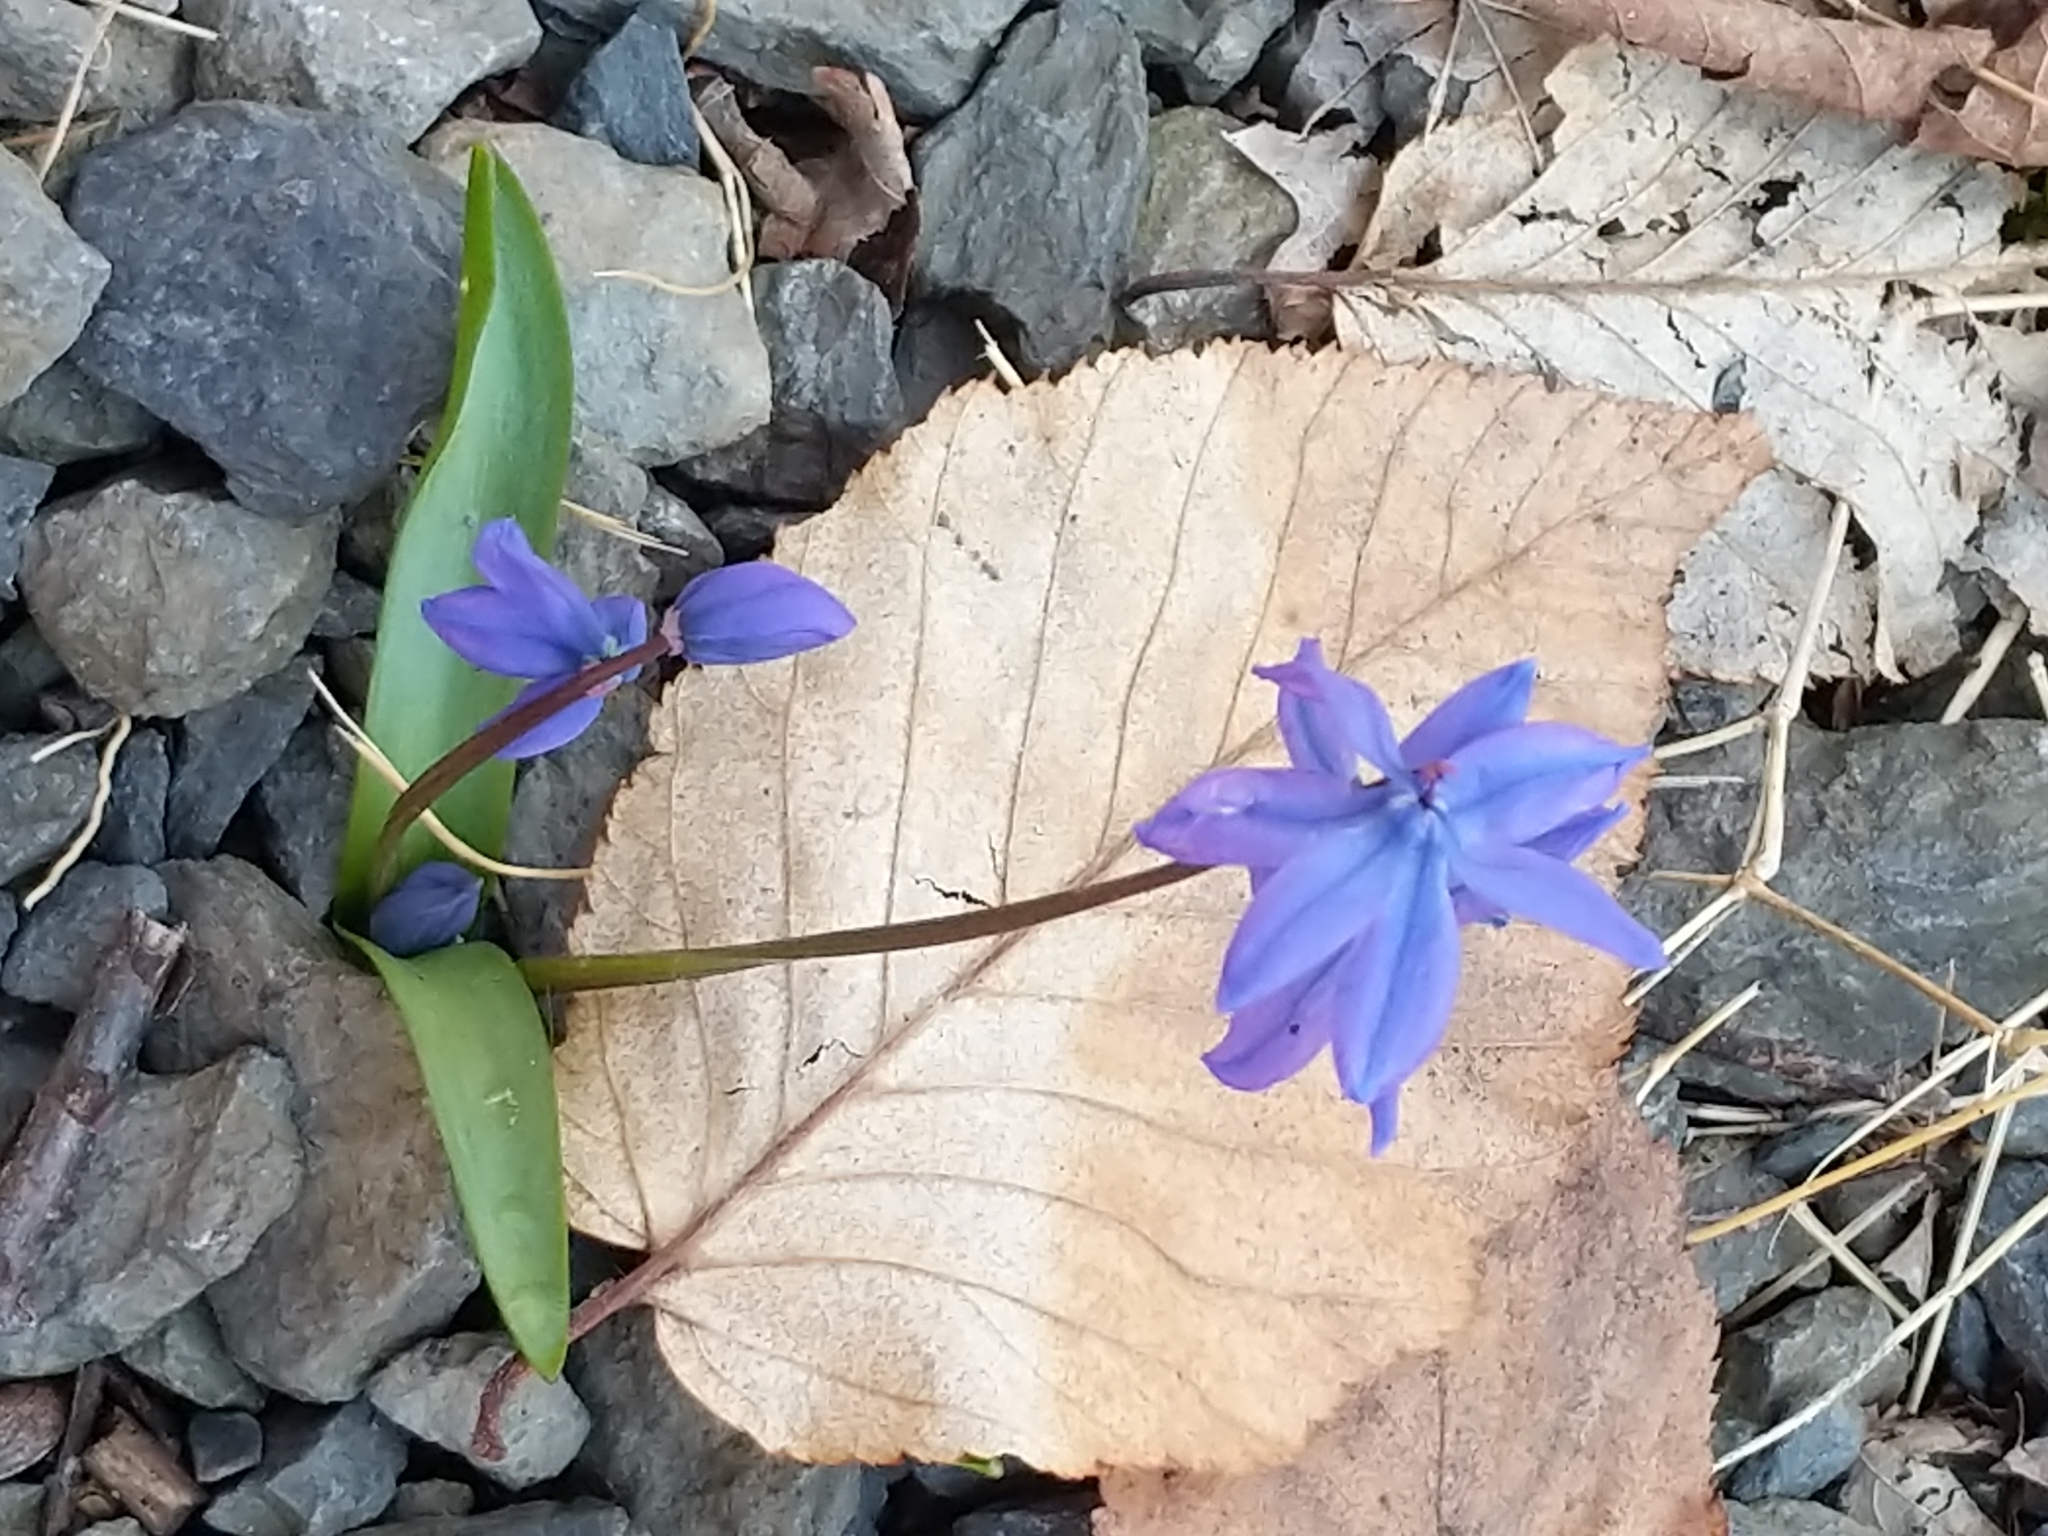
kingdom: Plantae
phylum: Tracheophyta
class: Liliopsida
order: Asparagales
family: Asparagaceae
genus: Scilla
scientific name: Scilla siberica
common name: Siberian squill
